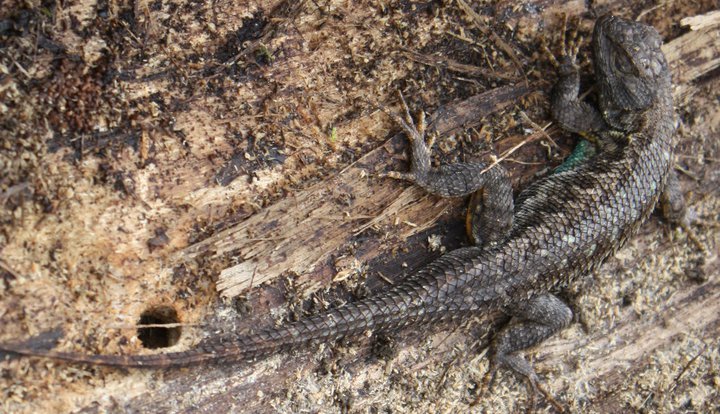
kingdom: Animalia
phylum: Chordata
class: Squamata
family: Phrynosomatidae
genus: Sceloporus
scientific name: Sceloporus occidentalis
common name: Western fence lizard
